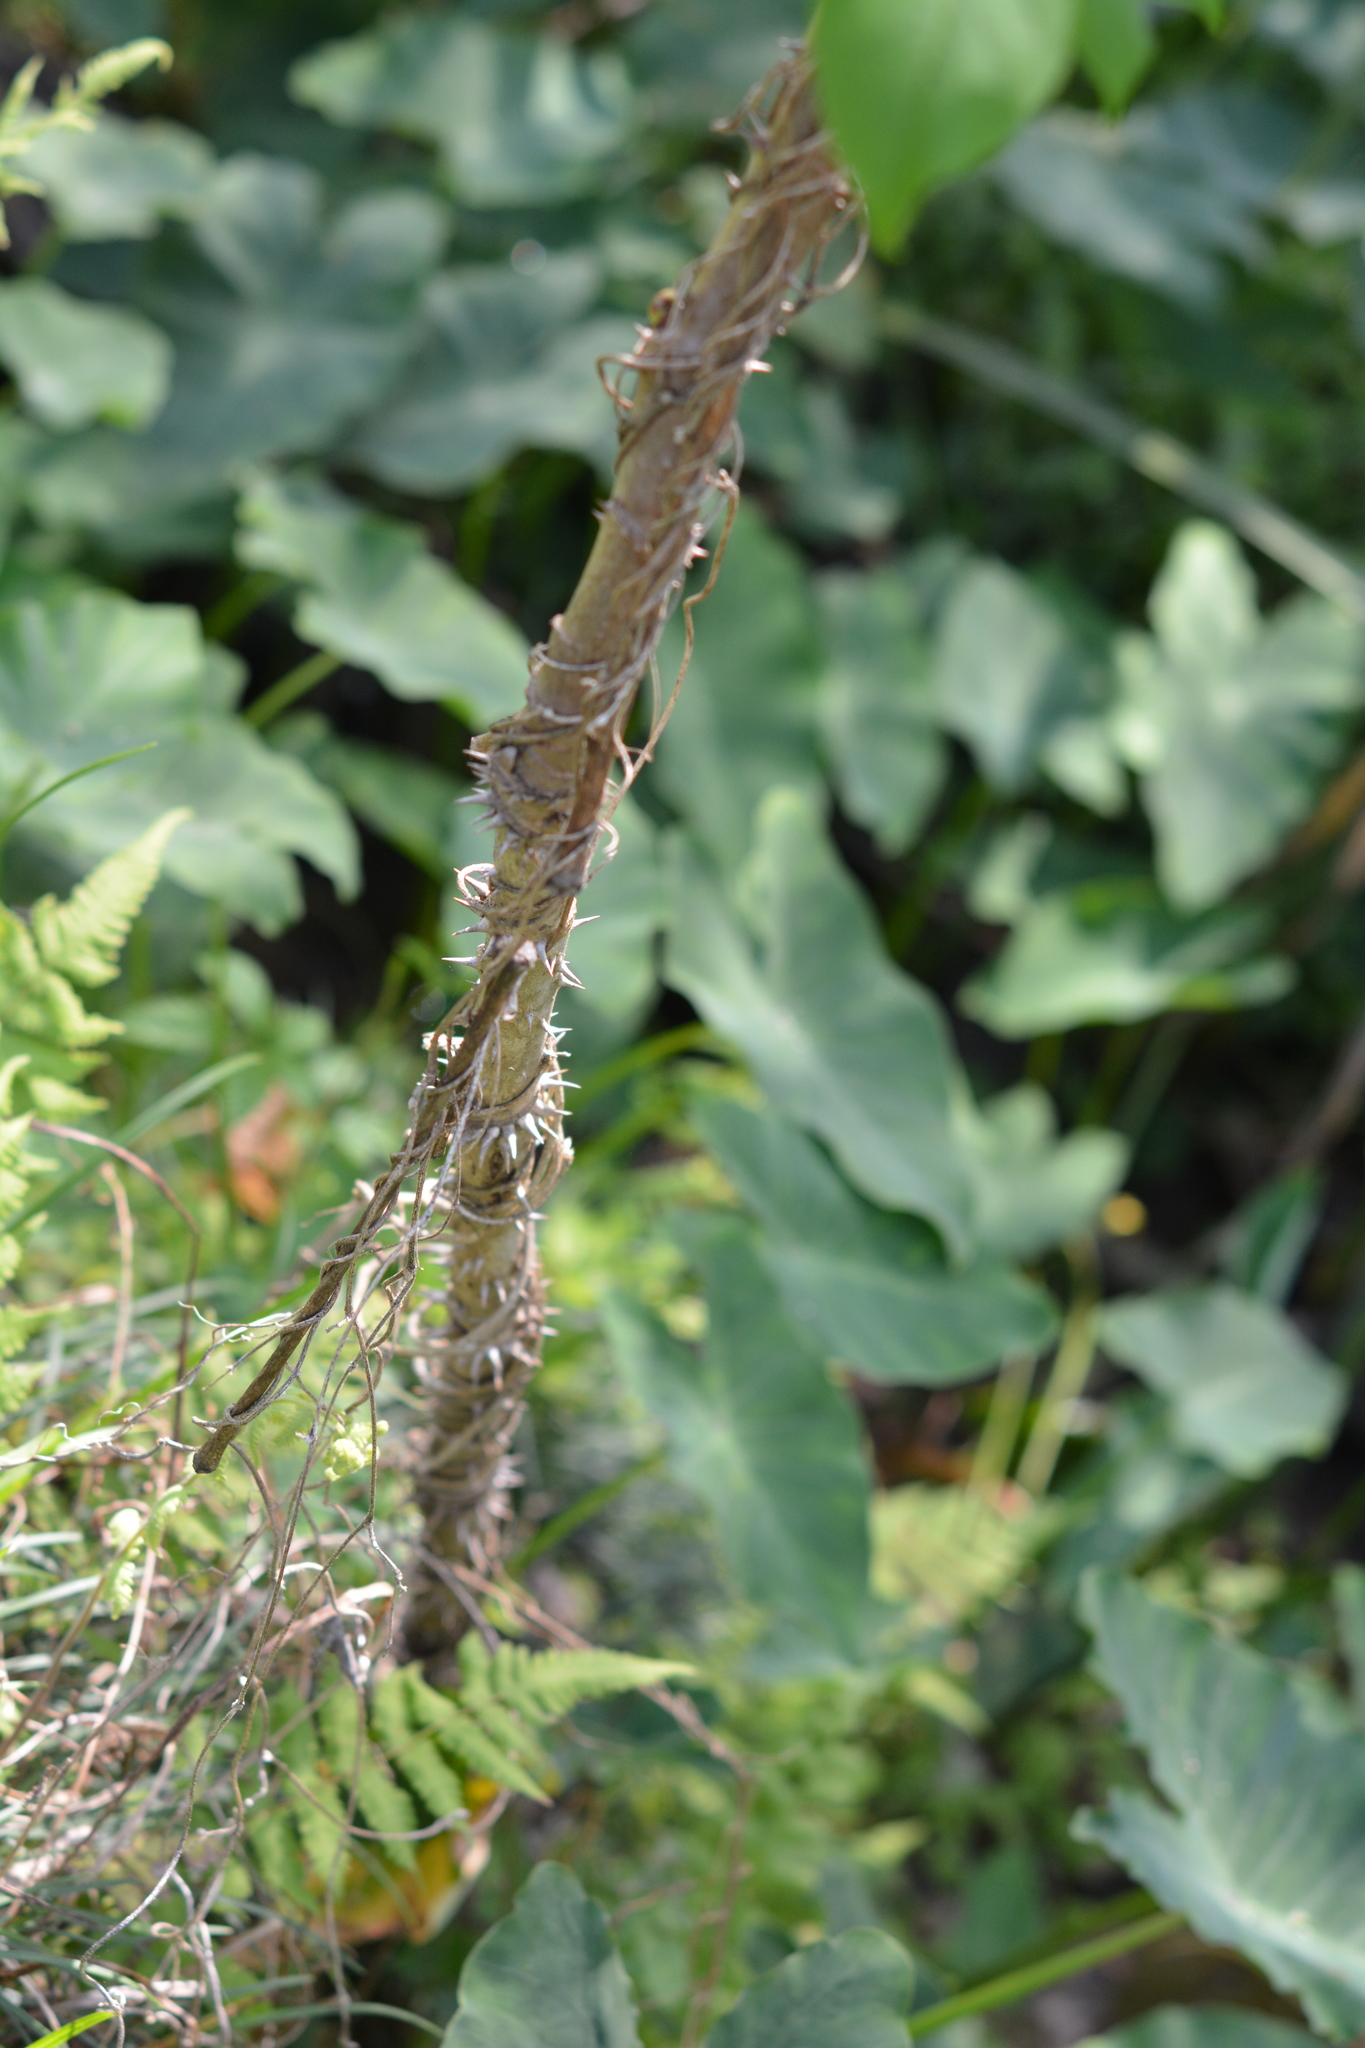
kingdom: Plantae
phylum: Tracheophyta
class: Magnoliopsida
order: Apiales
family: Araliaceae
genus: Aralia
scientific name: Aralia spinosa
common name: Hercules'-club
